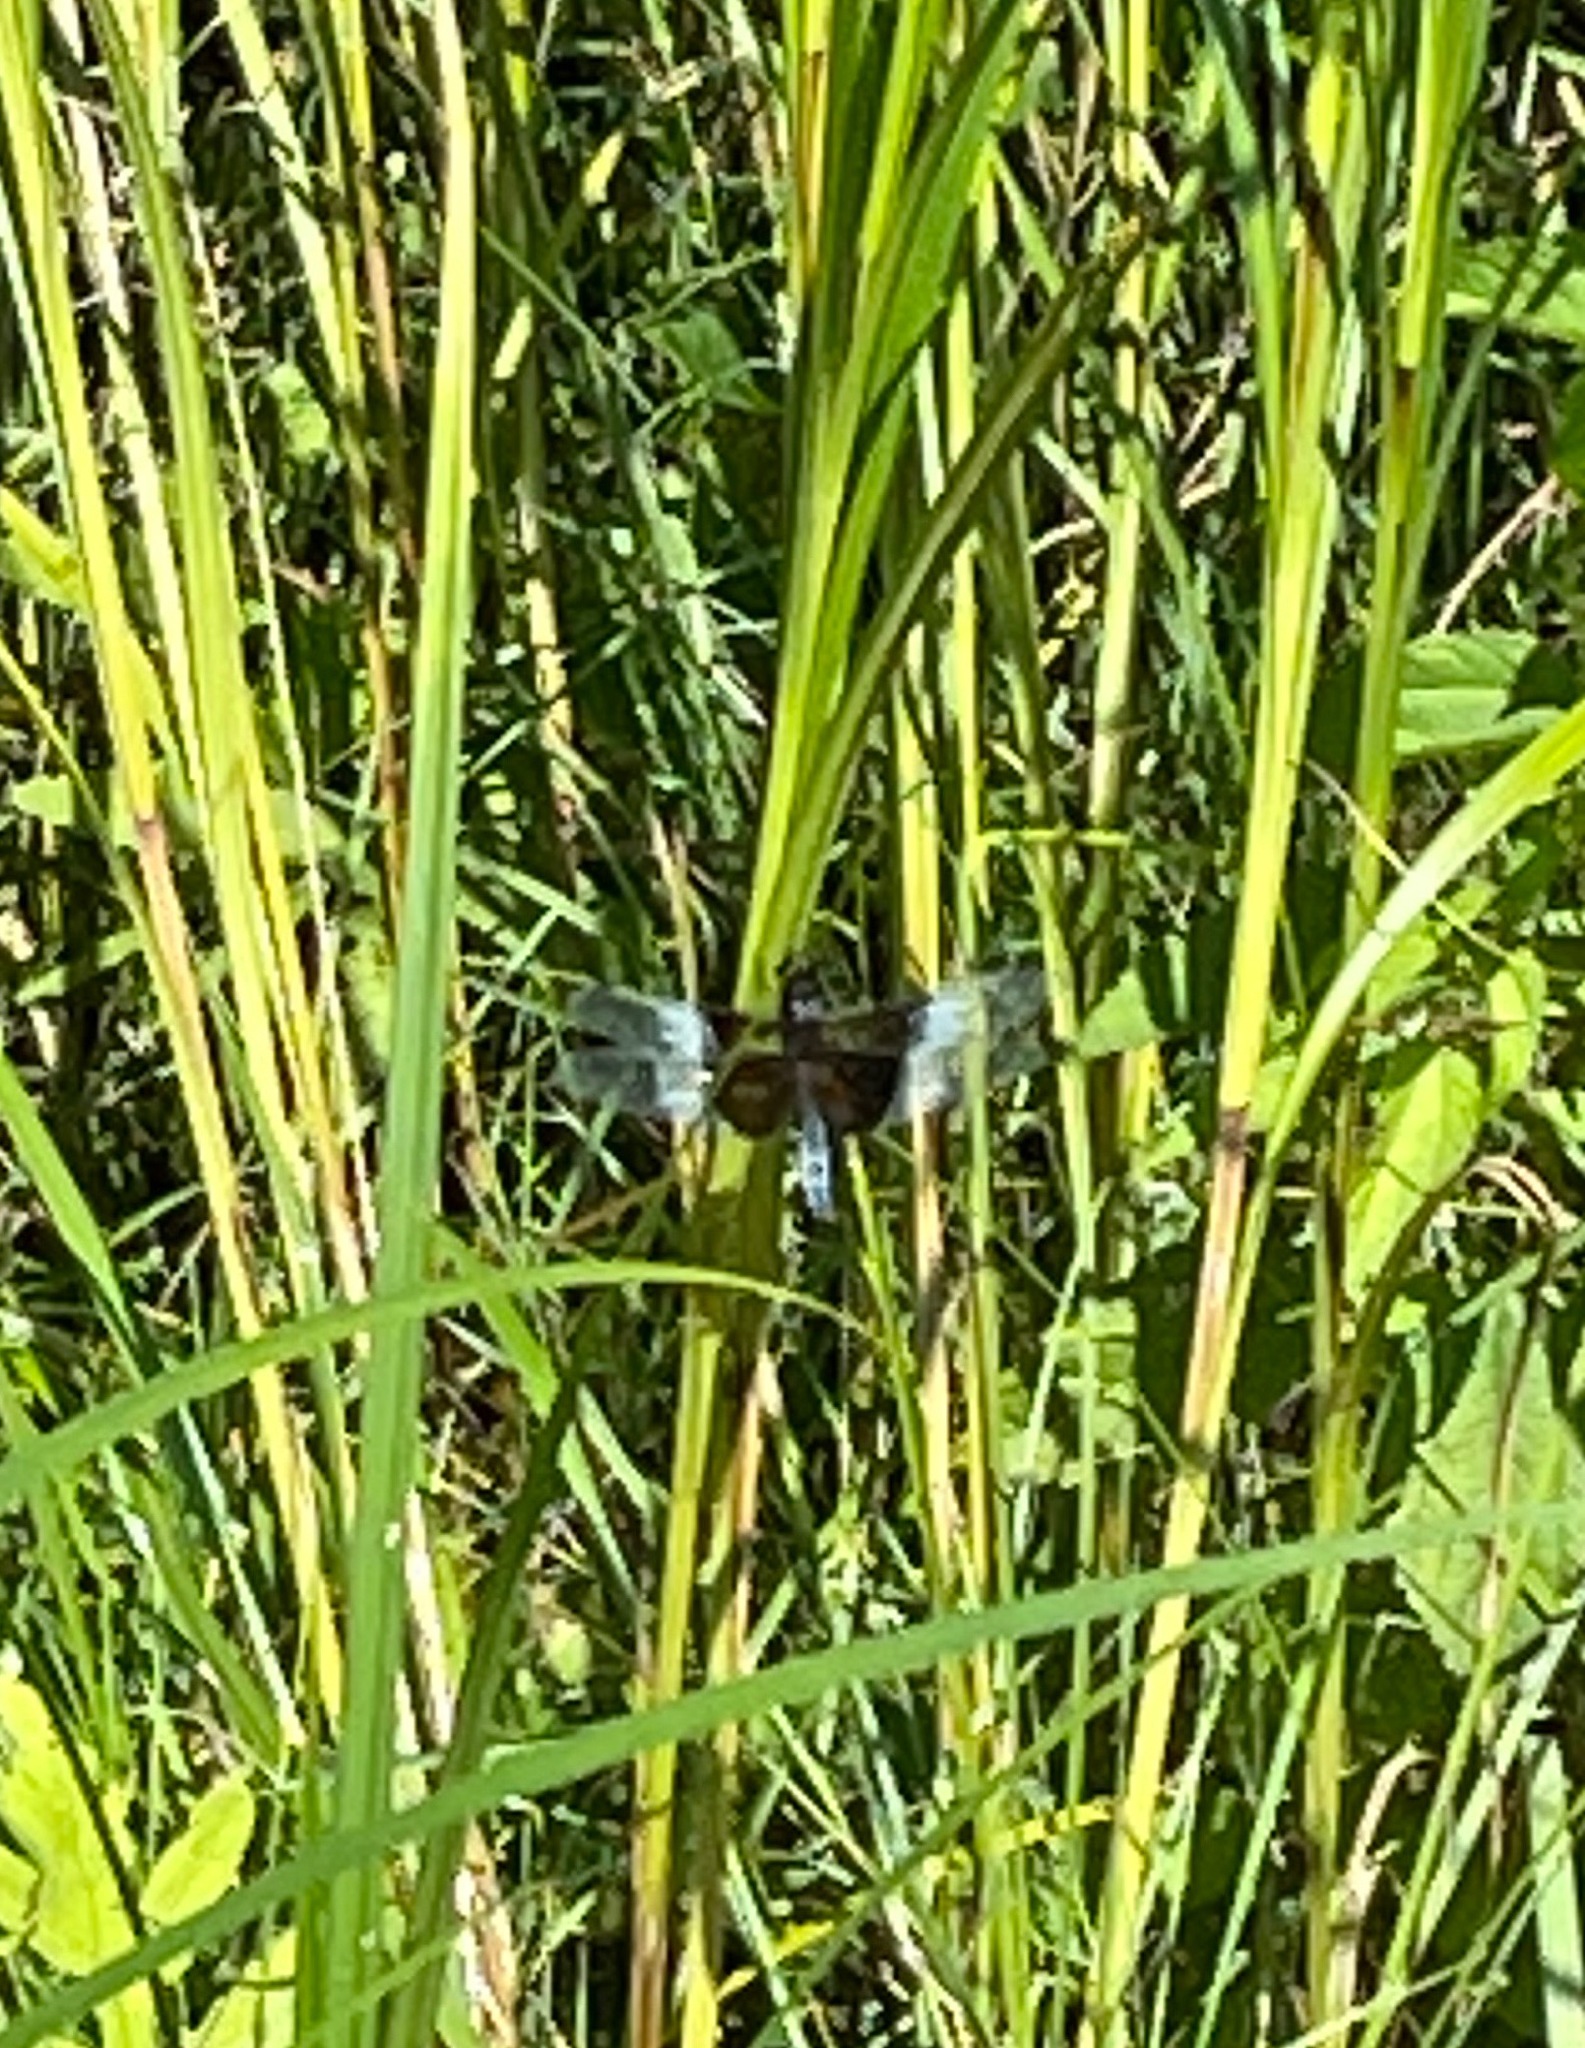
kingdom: Animalia
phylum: Arthropoda
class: Insecta
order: Odonata
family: Libellulidae
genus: Libellula
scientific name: Libellula luctuosa
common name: Widow skimmer
